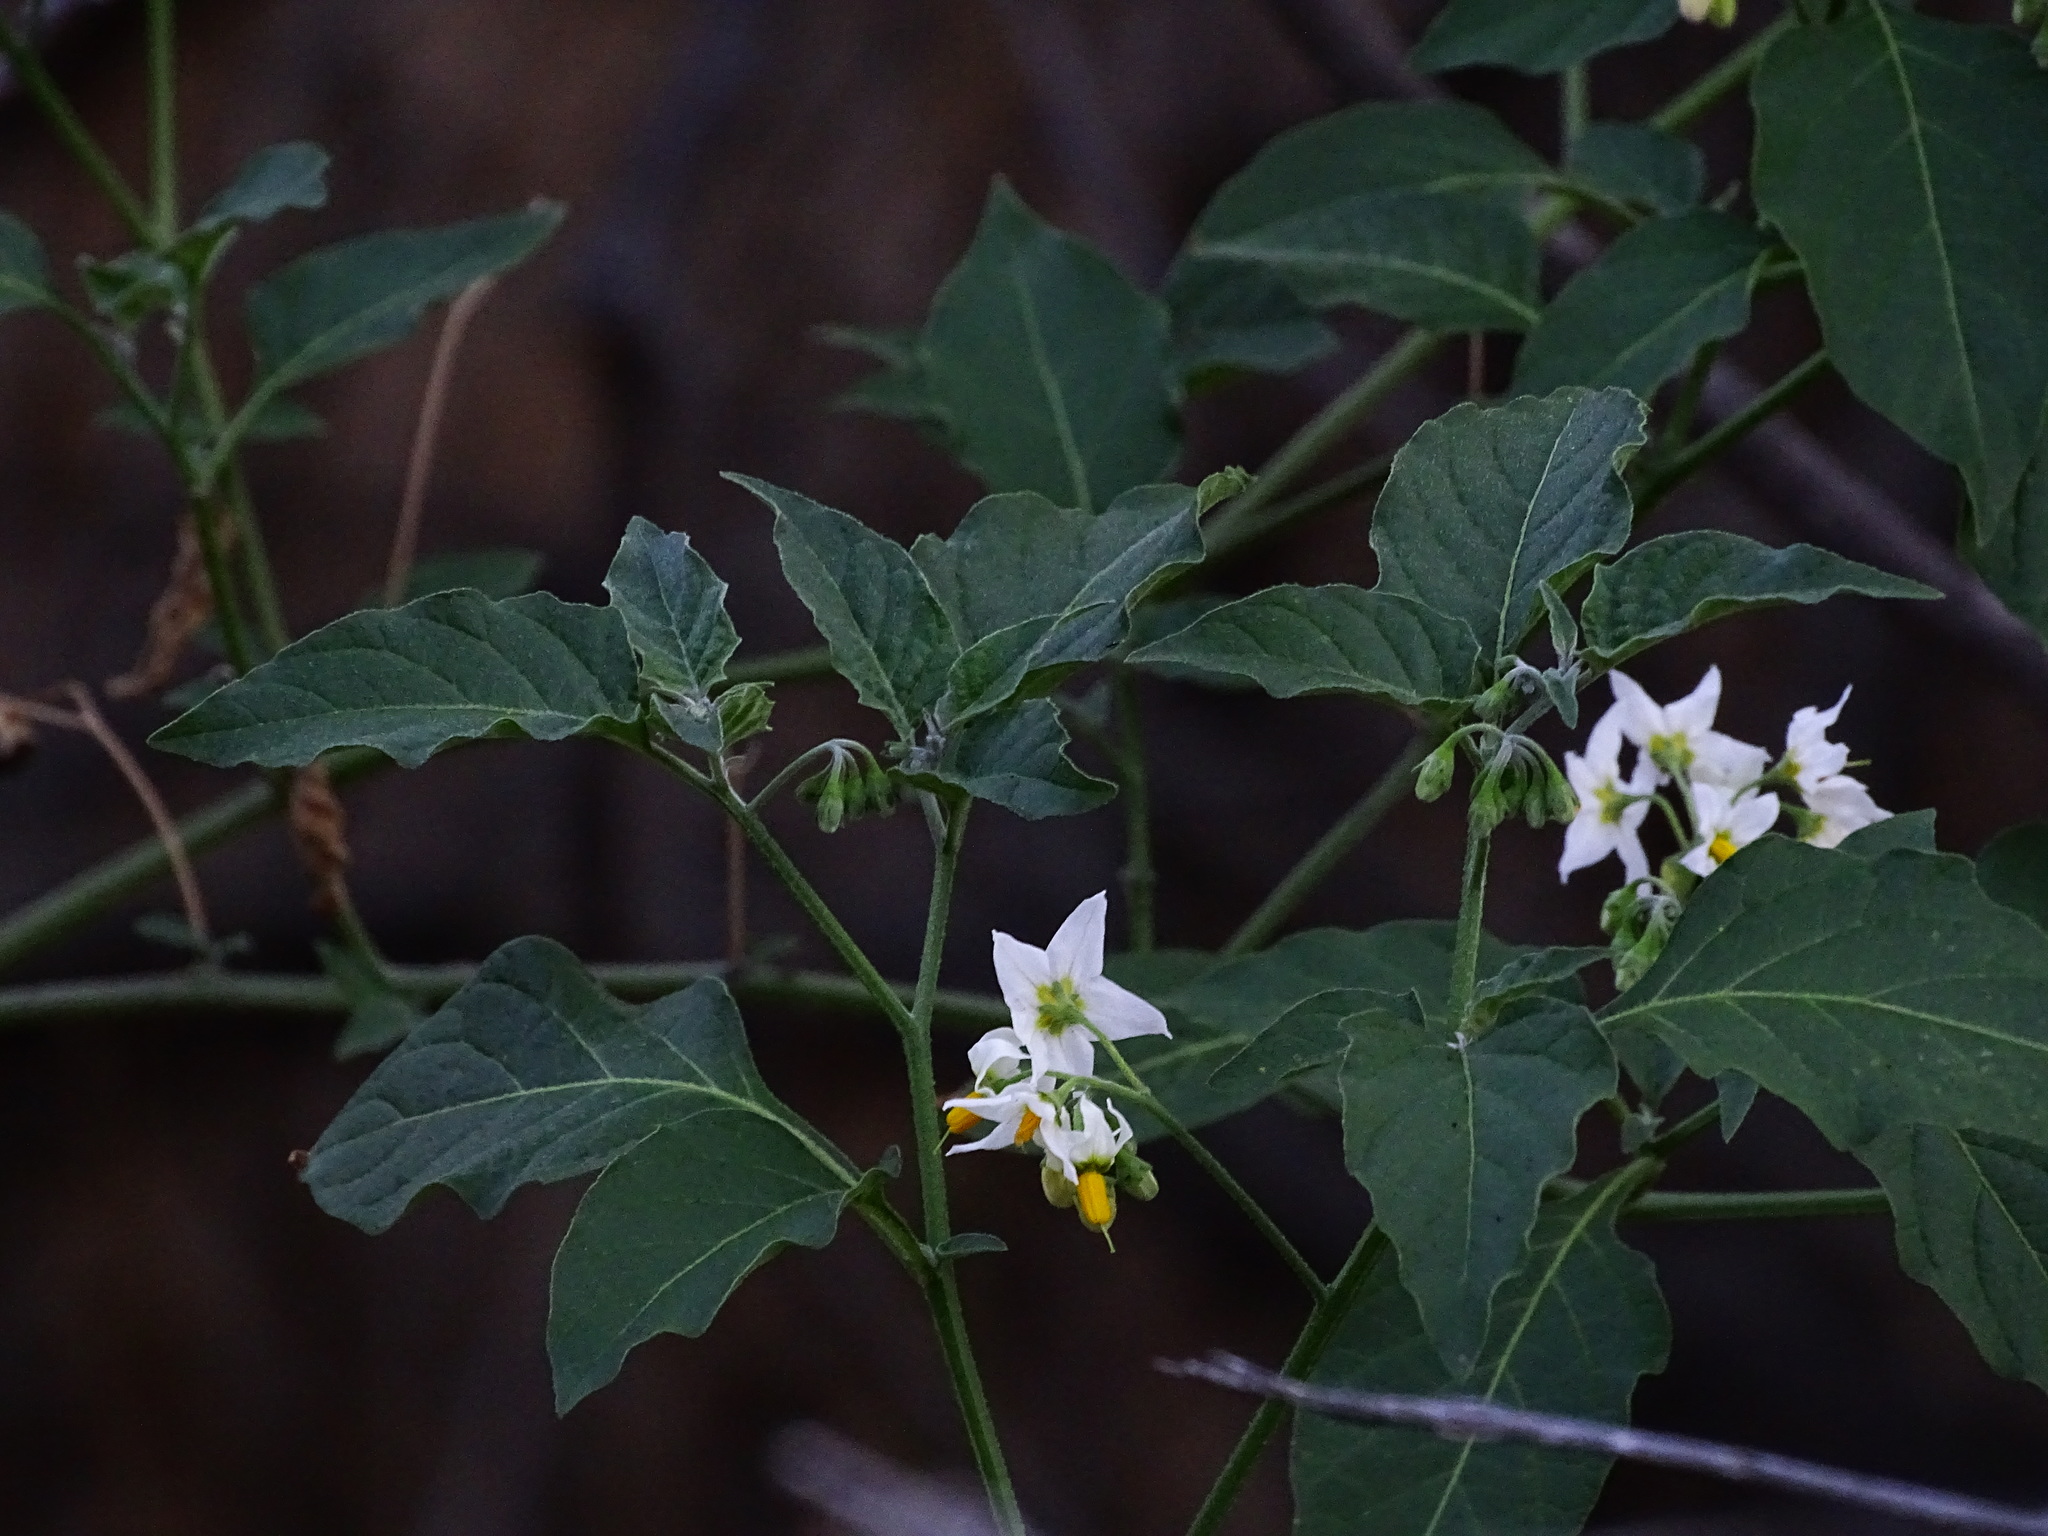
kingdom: Plantae
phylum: Tracheophyta
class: Magnoliopsida
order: Solanales
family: Solanaceae
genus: Solanum
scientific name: Solanum douglasii
